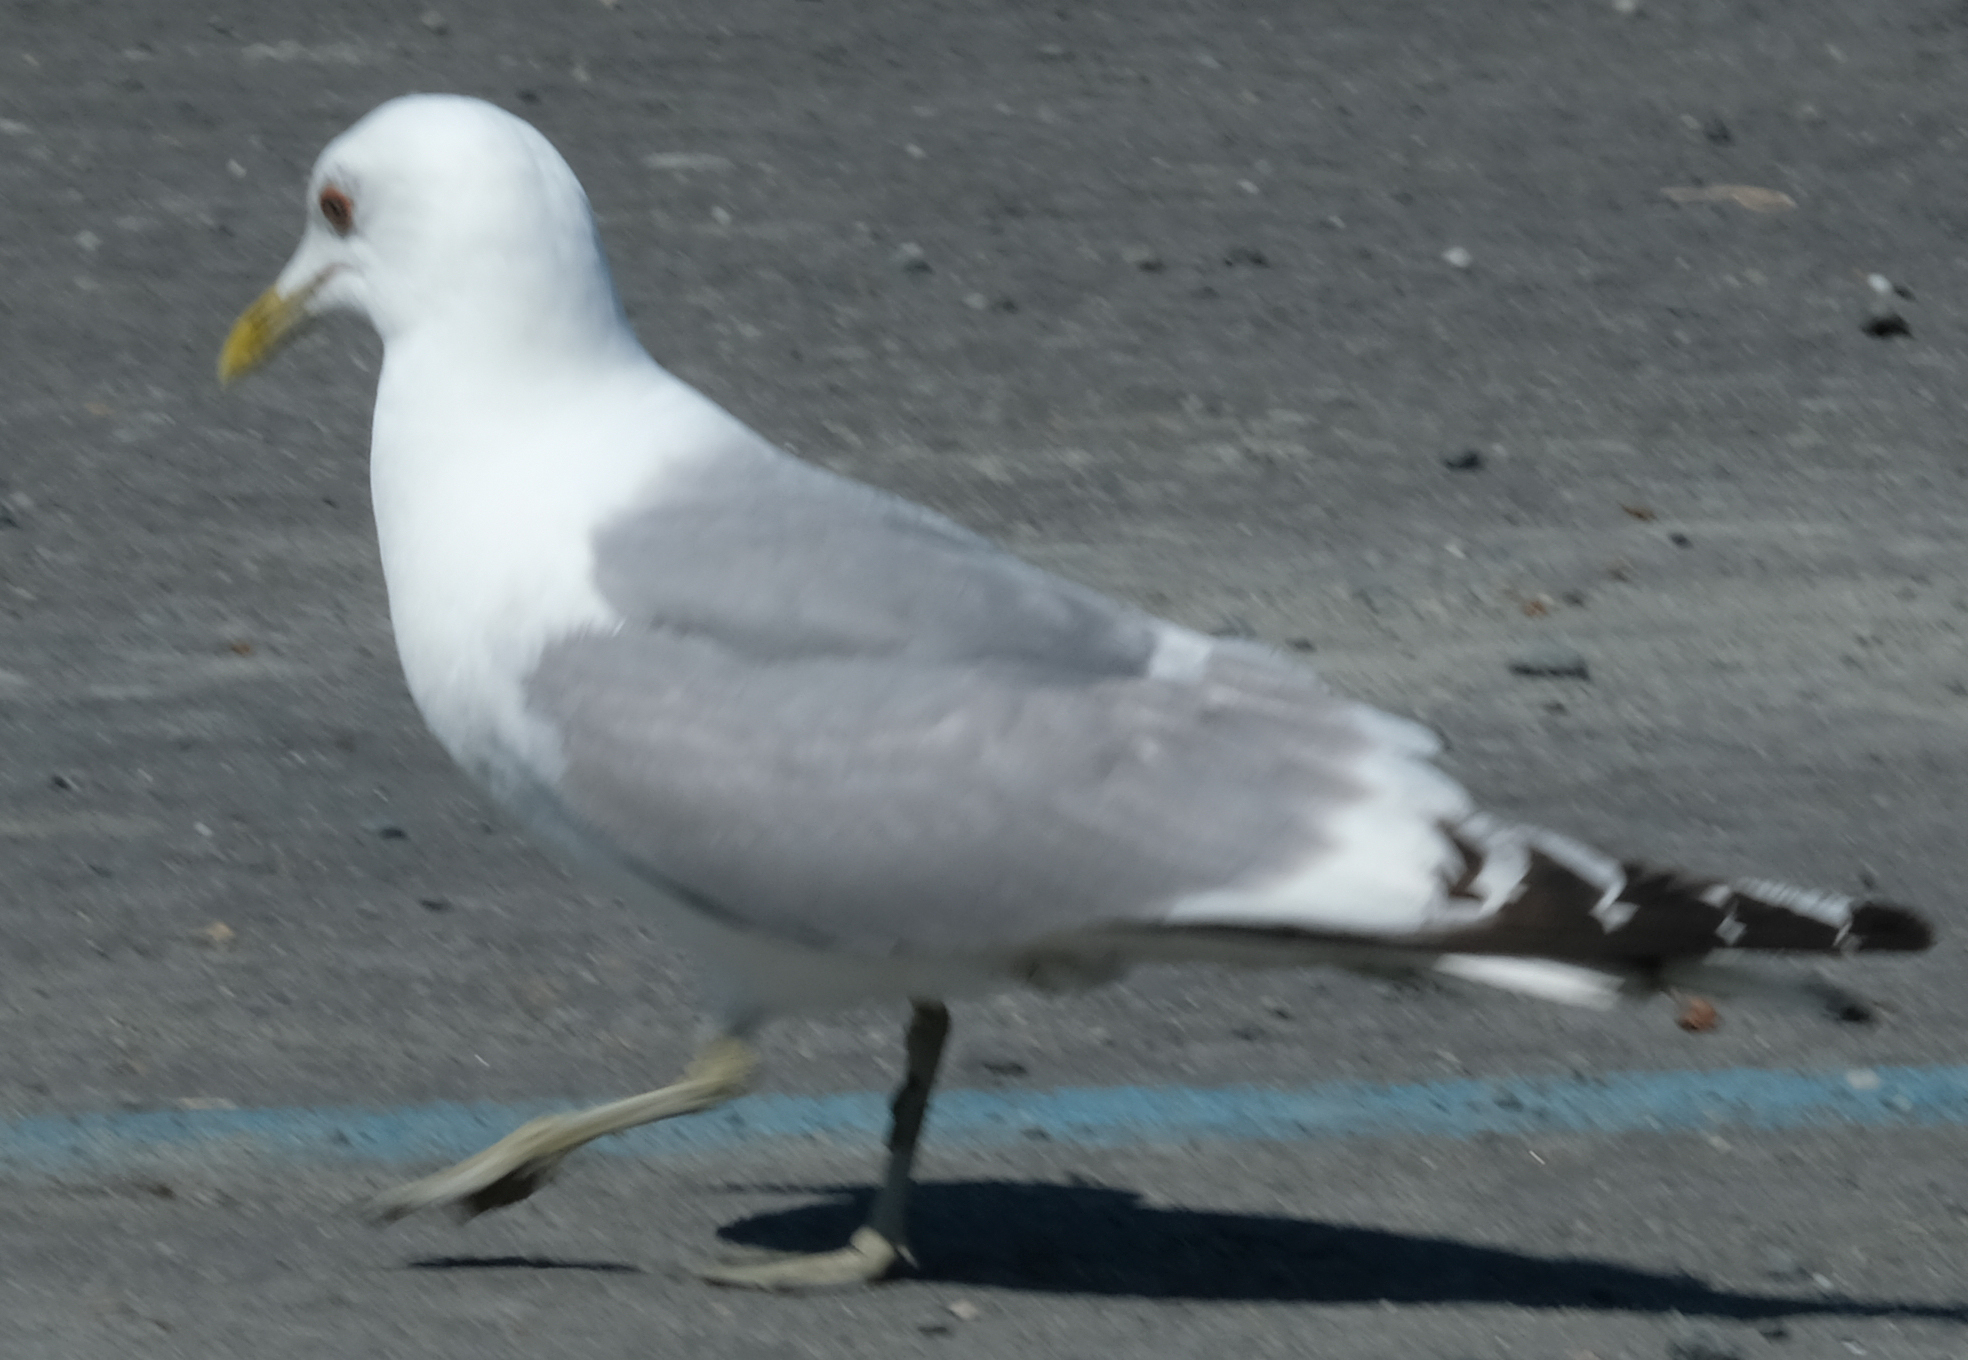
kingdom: Animalia
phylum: Chordata
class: Aves
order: Charadriiformes
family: Laridae
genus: Larus
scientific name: Larus brachyrhynchus
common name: Short-billed gull
